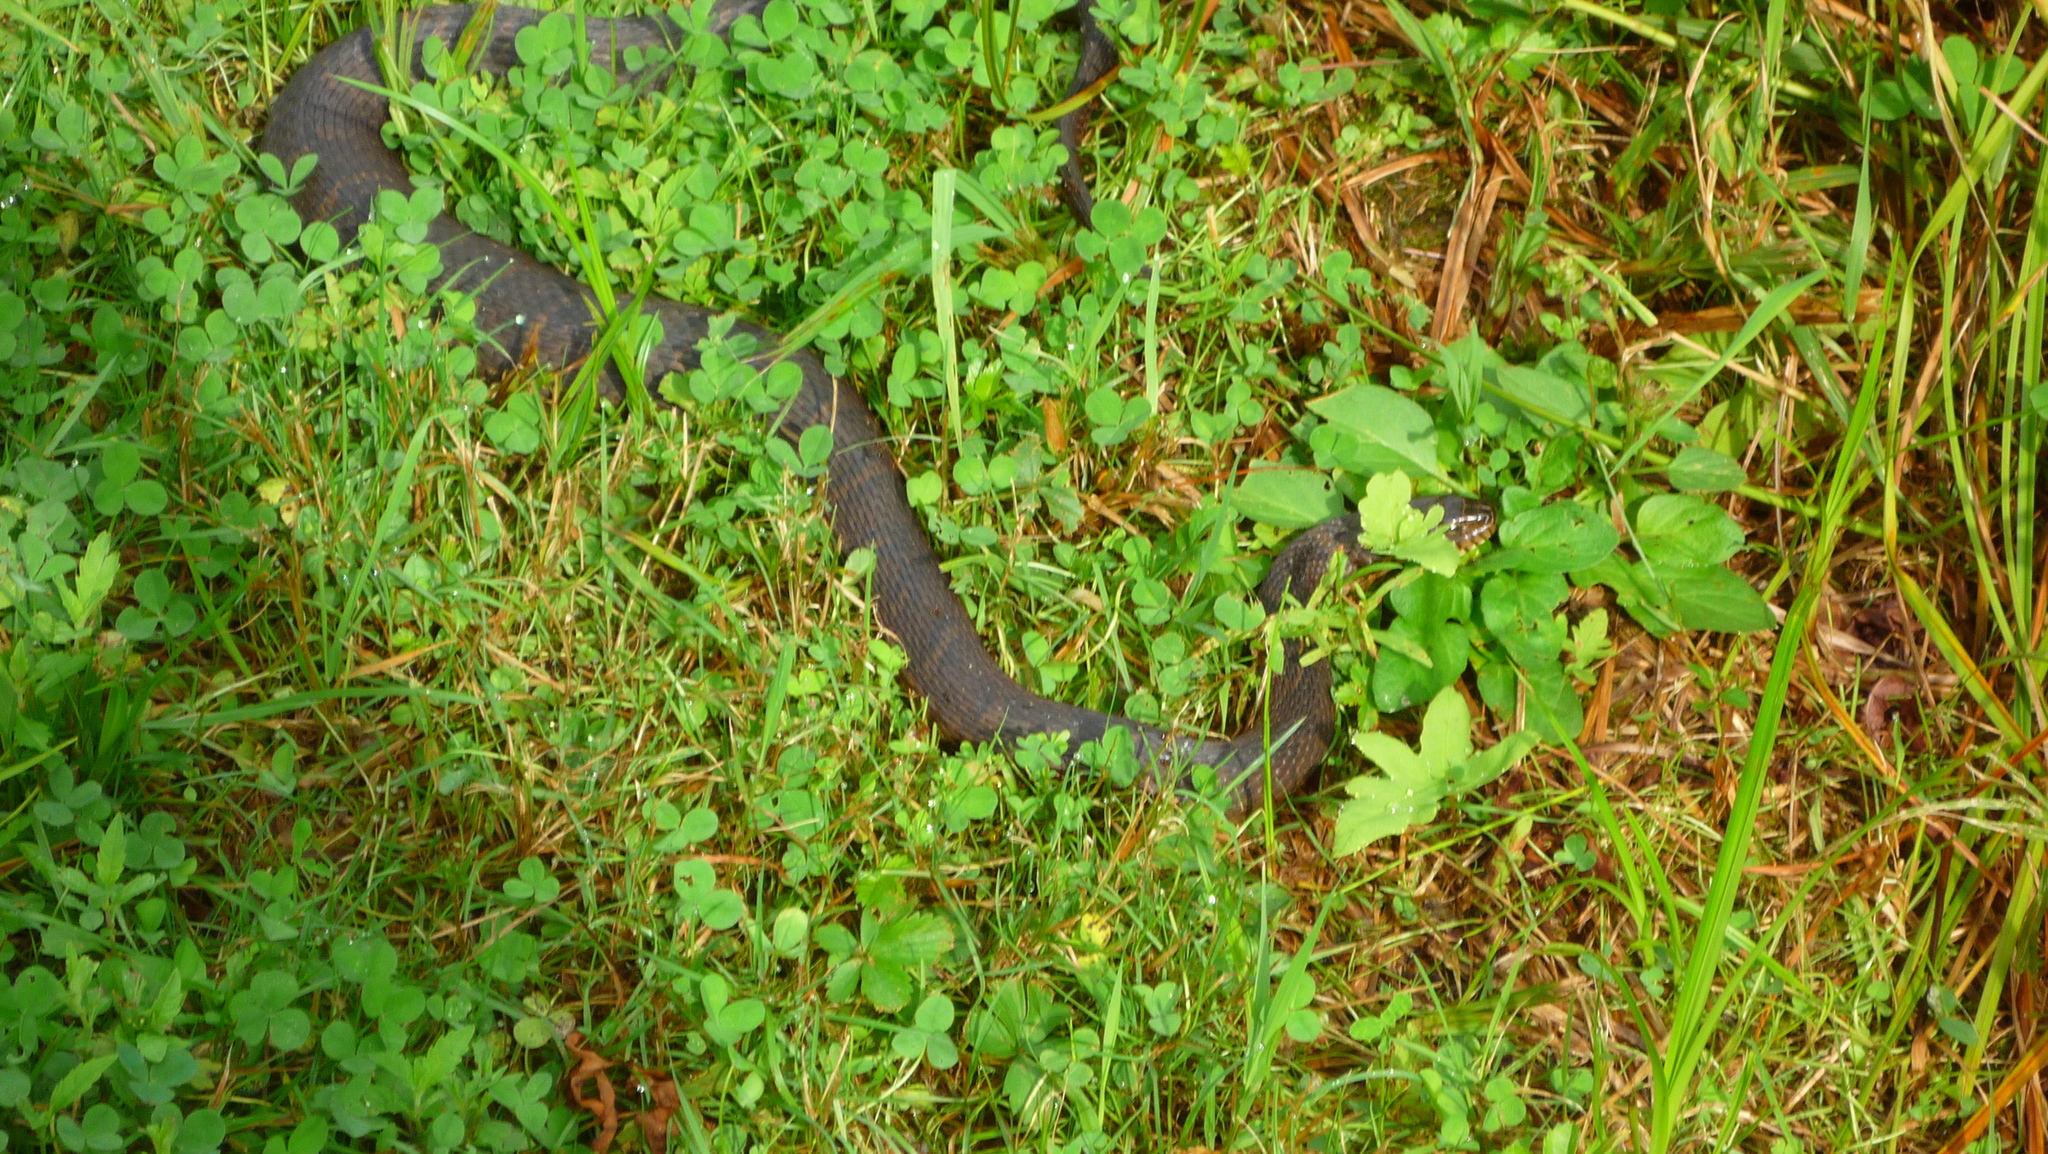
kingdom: Animalia
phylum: Chordata
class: Squamata
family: Colubridae
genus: Nerodia
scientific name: Nerodia sipedon
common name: Northern water snake
